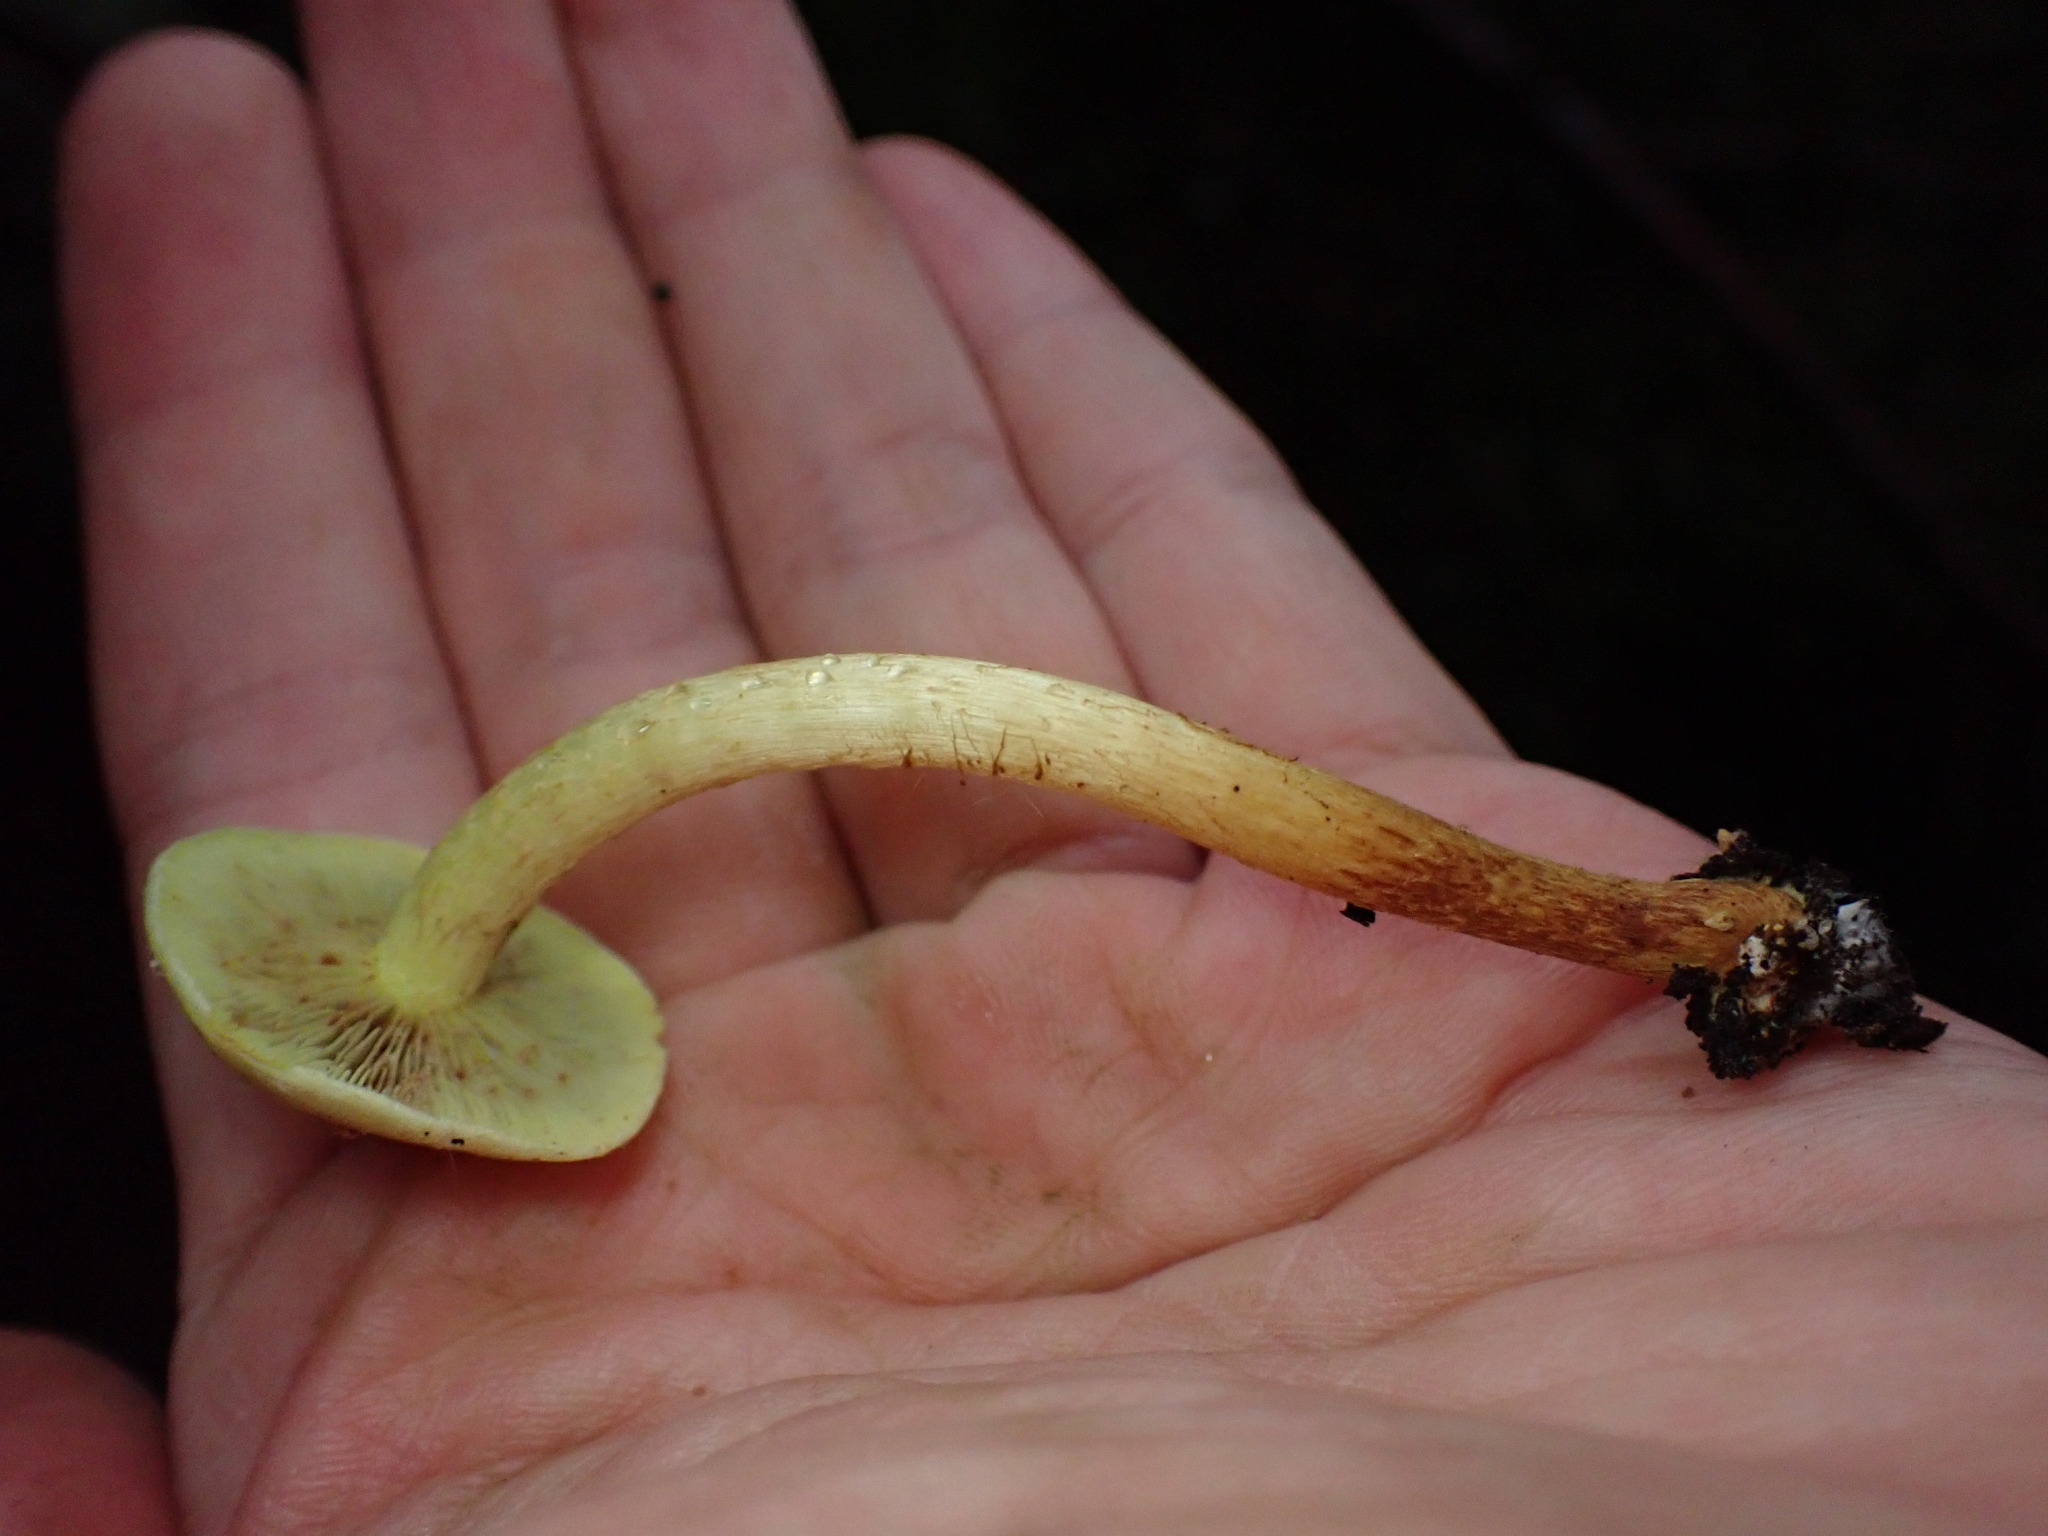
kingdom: Fungi
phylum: Basidiomycota
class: Agaricomycetes
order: Agaricales
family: Strophariaceae
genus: Hypholoma
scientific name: Hypholoma fasciculare
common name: Sulphur tuft
